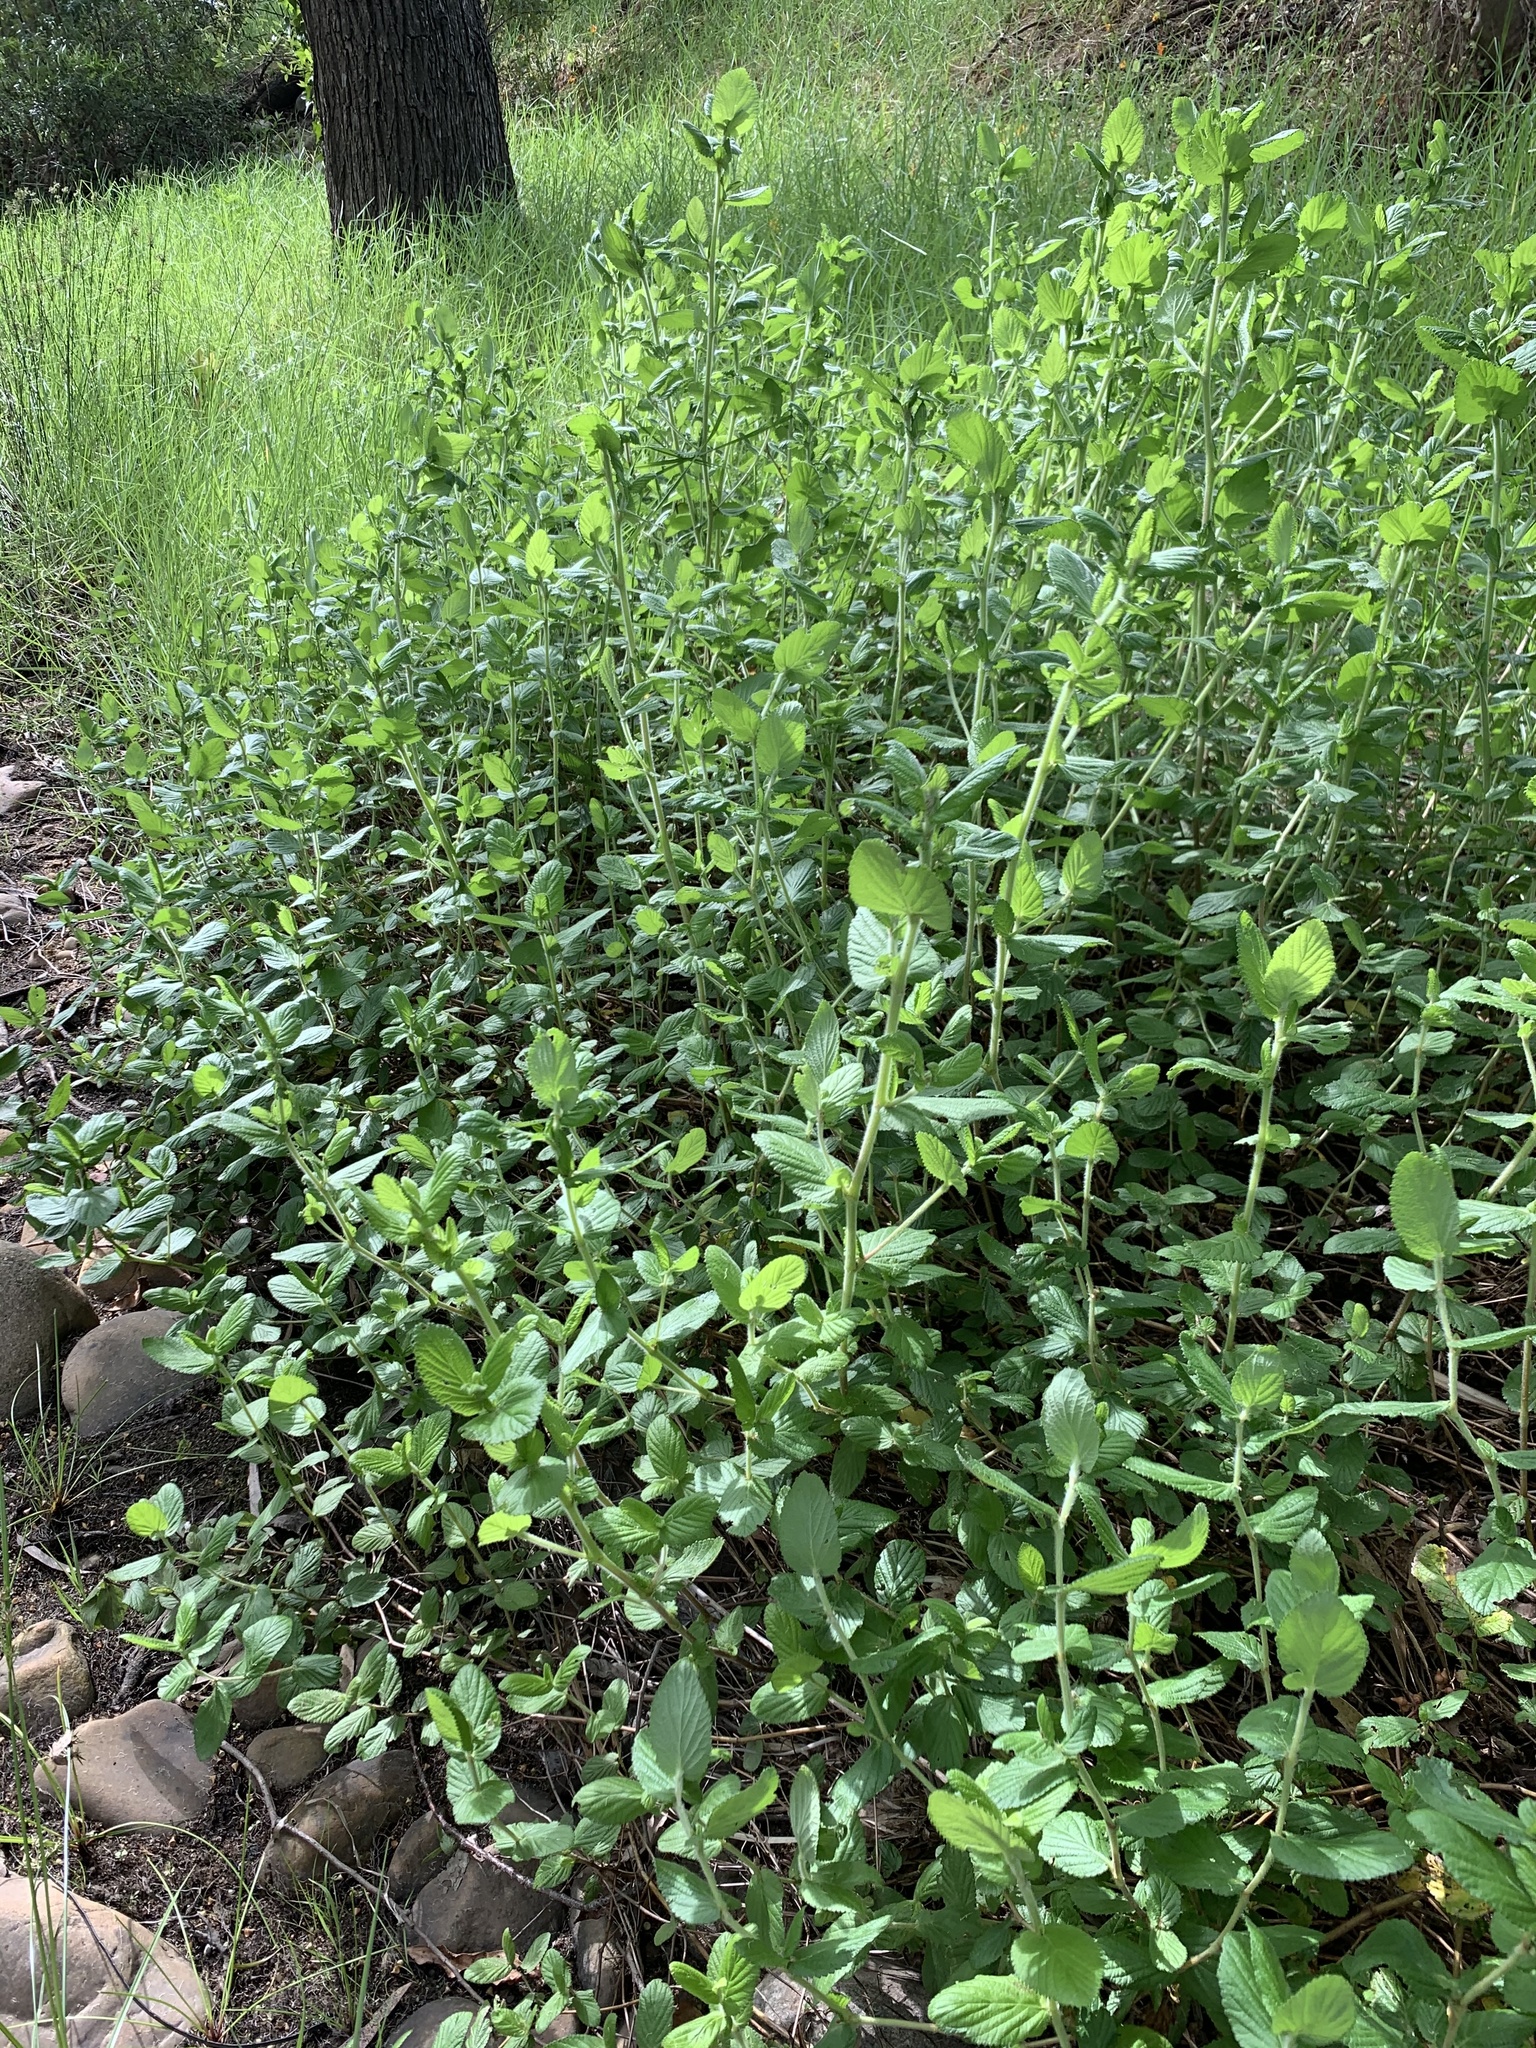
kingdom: Plantae
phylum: Tracheophyta
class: Magnoliopsida
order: Rosales
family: Rosaceae
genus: Cliffortia
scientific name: Cliffortia odorata
